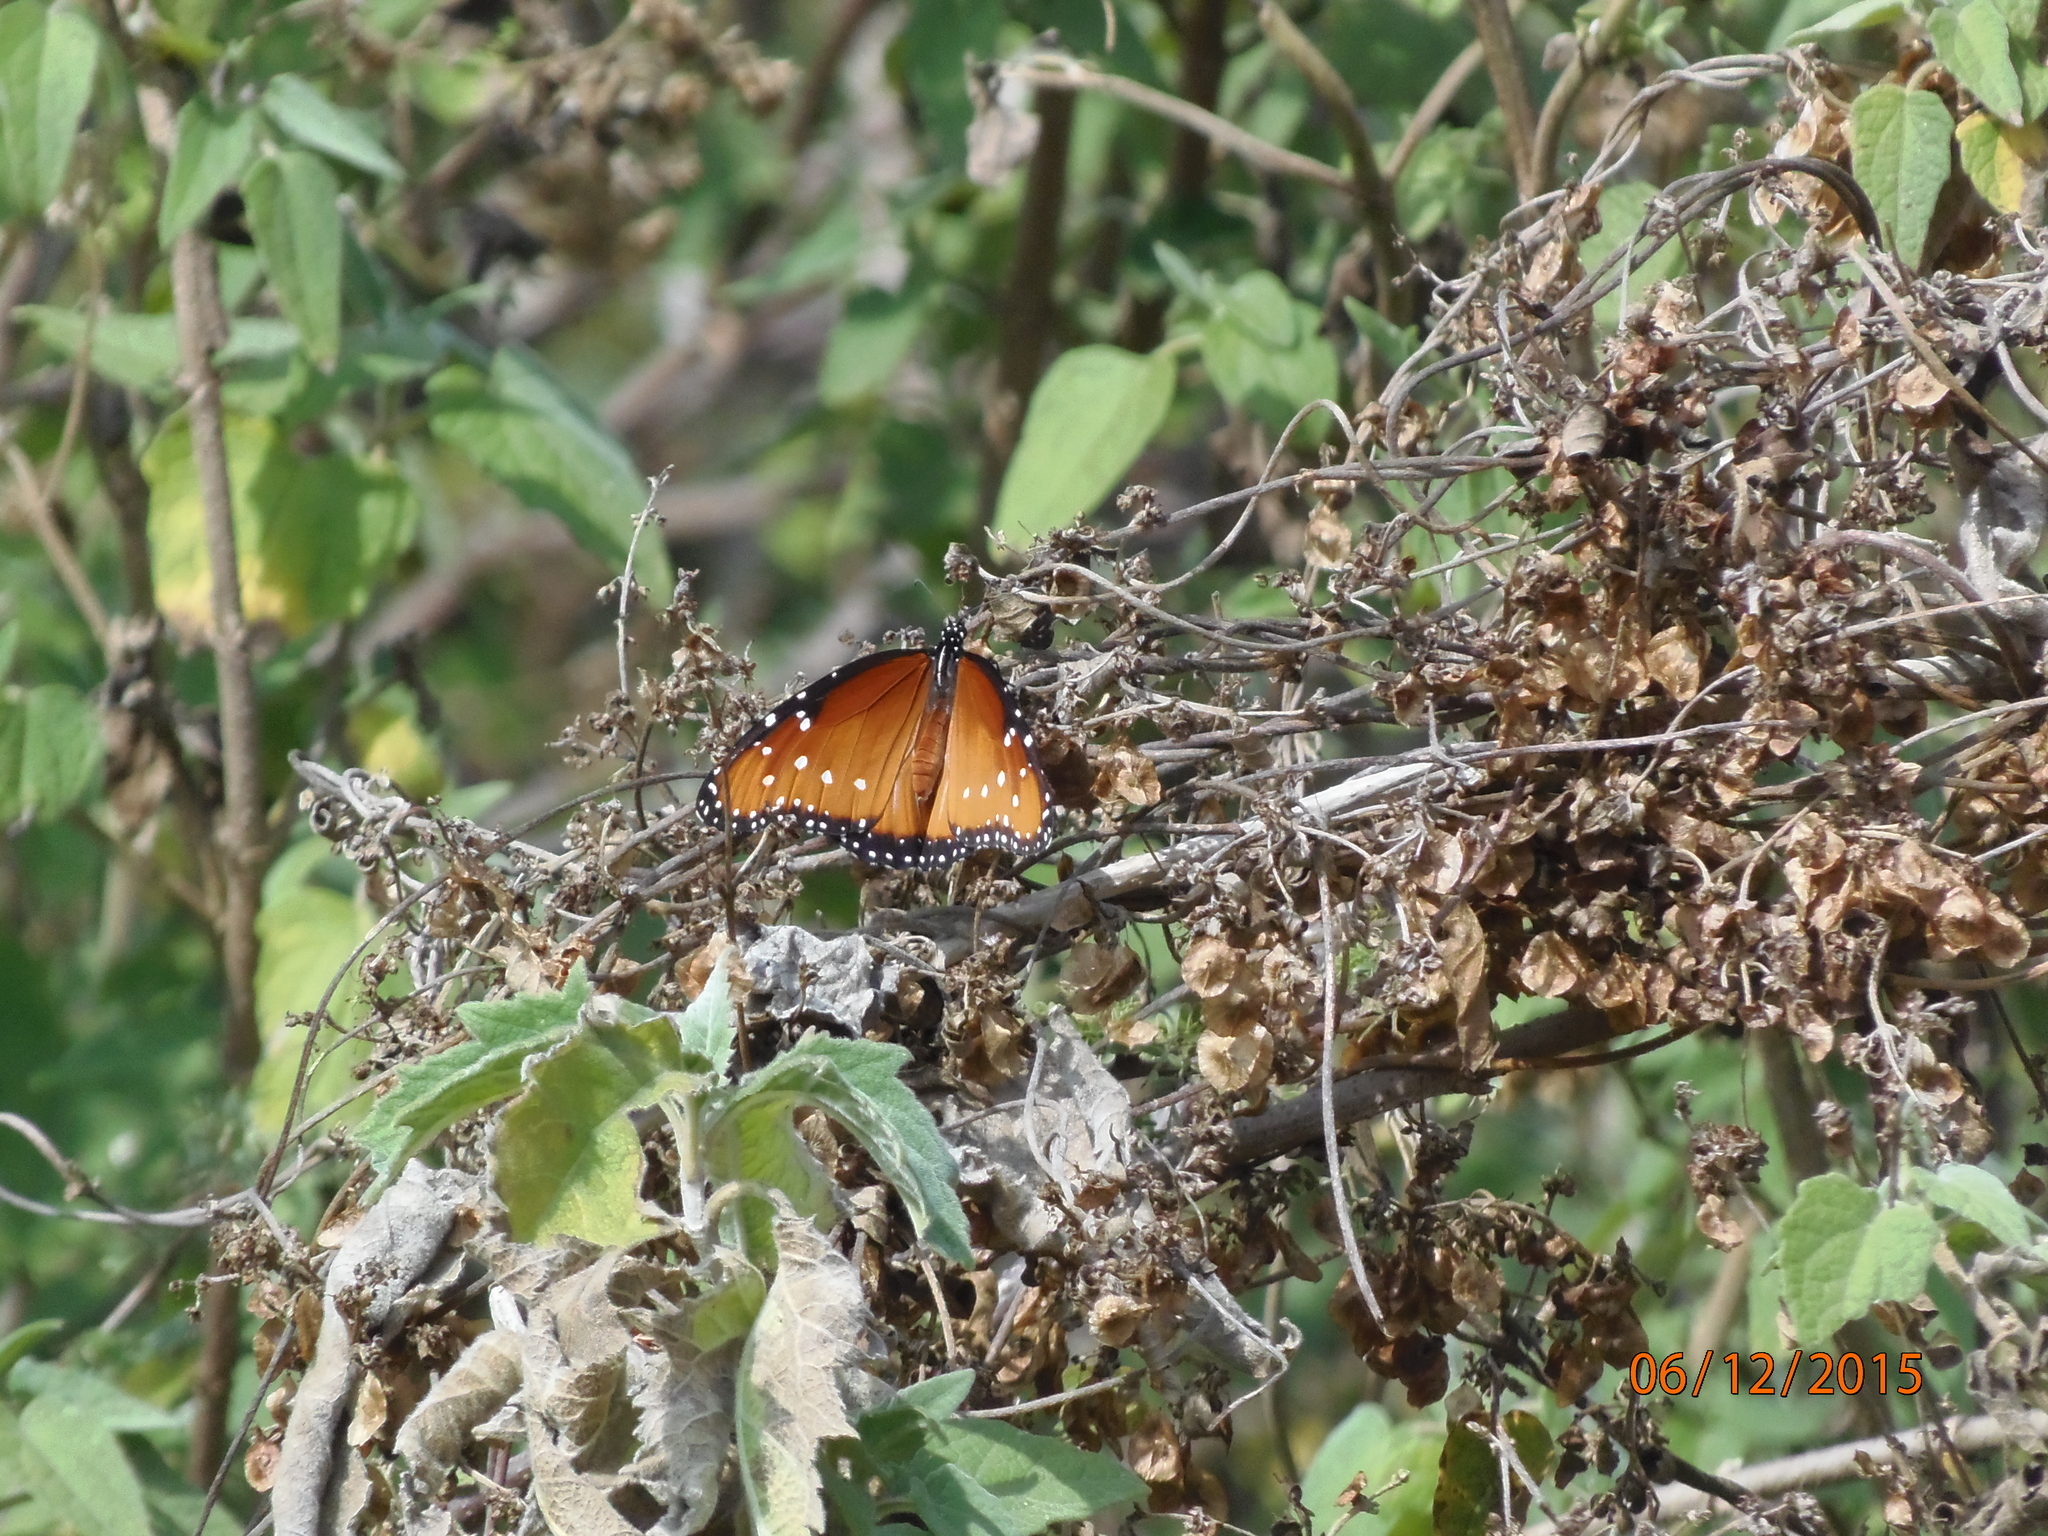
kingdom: Animalia
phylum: Arthropoda
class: Insecta
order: Lepidoptera
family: Nymphalidae
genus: Danaus
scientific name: Danaus gilippus
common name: Queen
